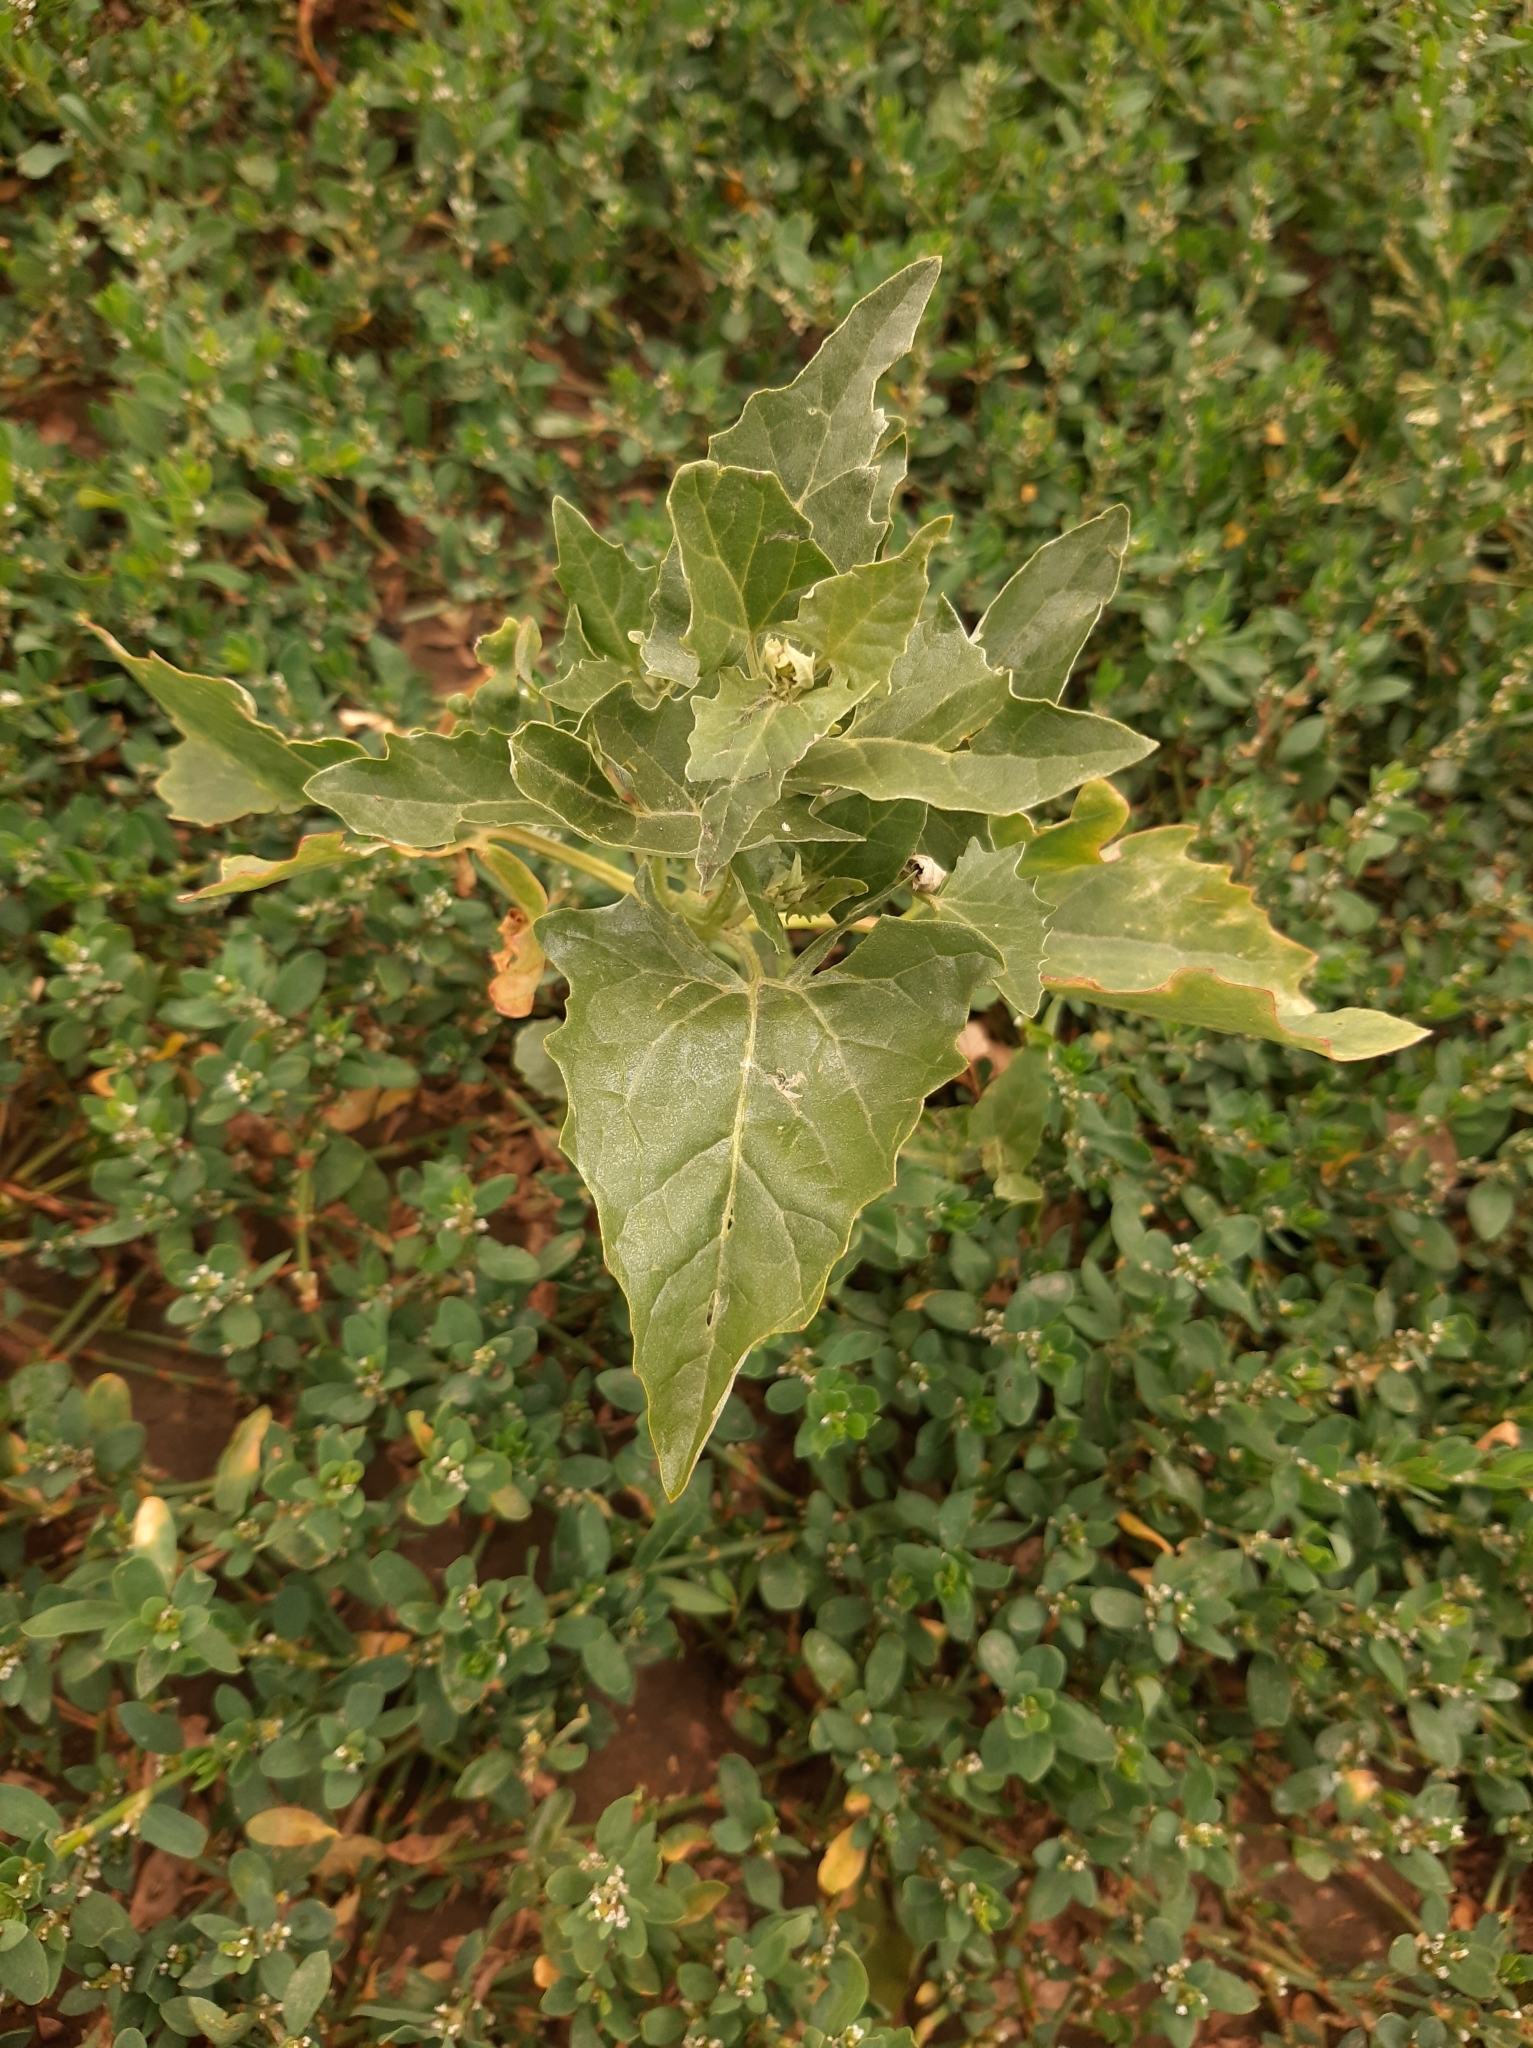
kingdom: Plantae
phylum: Tracheophyta
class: Magnoliopsida
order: Caryophyllales
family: Amaranthaceae
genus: Atriplex
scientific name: Atriplex sagittata
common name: Purple orache
